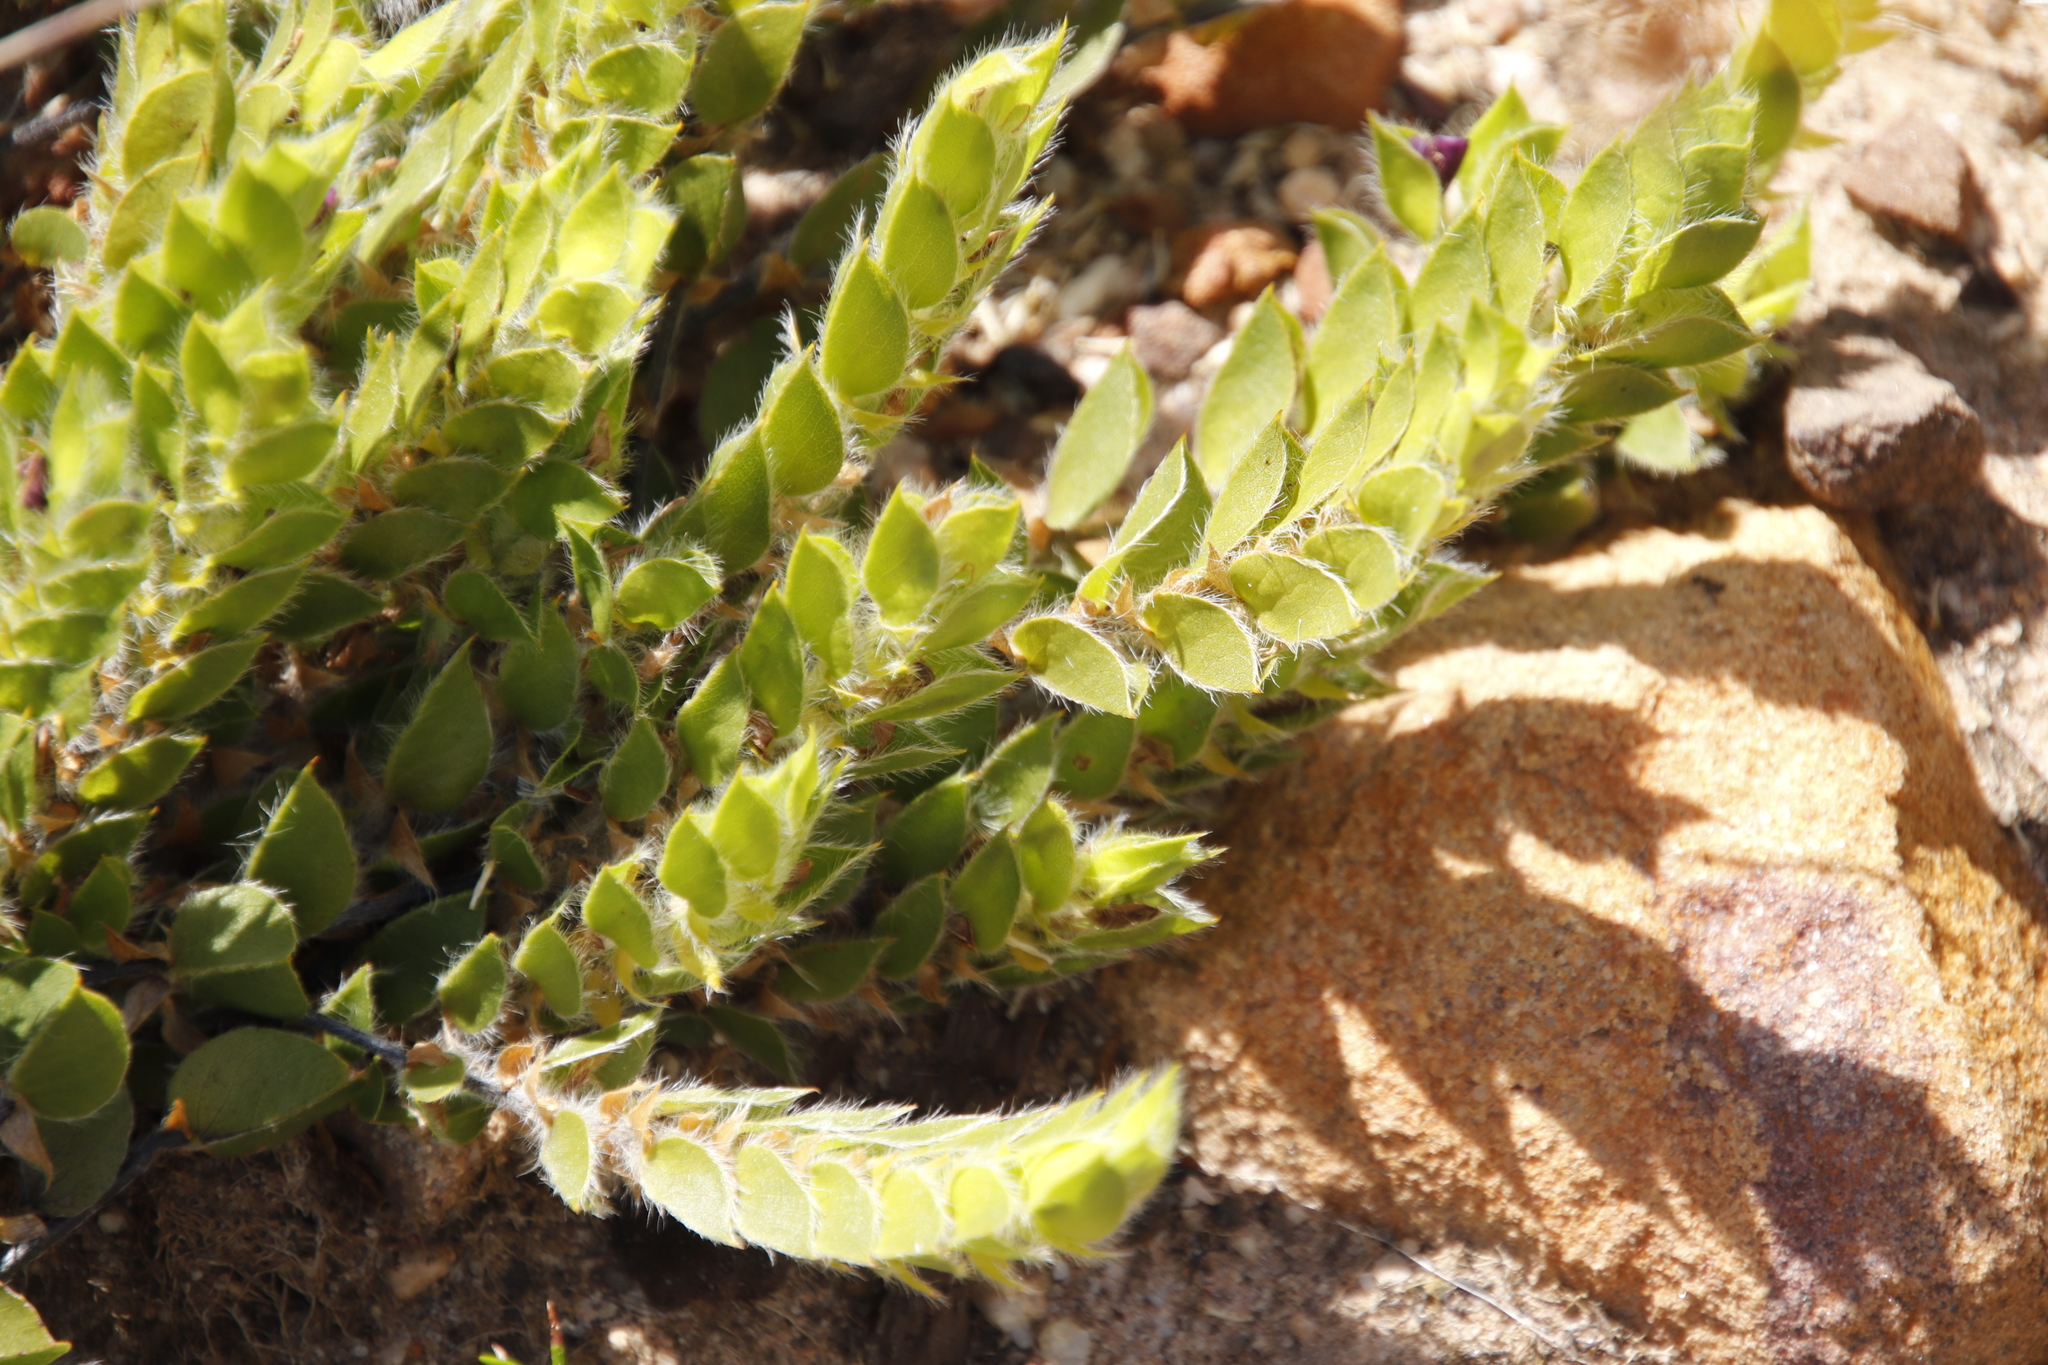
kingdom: Plantae
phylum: Tracheophyta
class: Magnoliopsida
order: Fabales
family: Fabaceae
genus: Psoralea
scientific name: Psoralea imbricata
